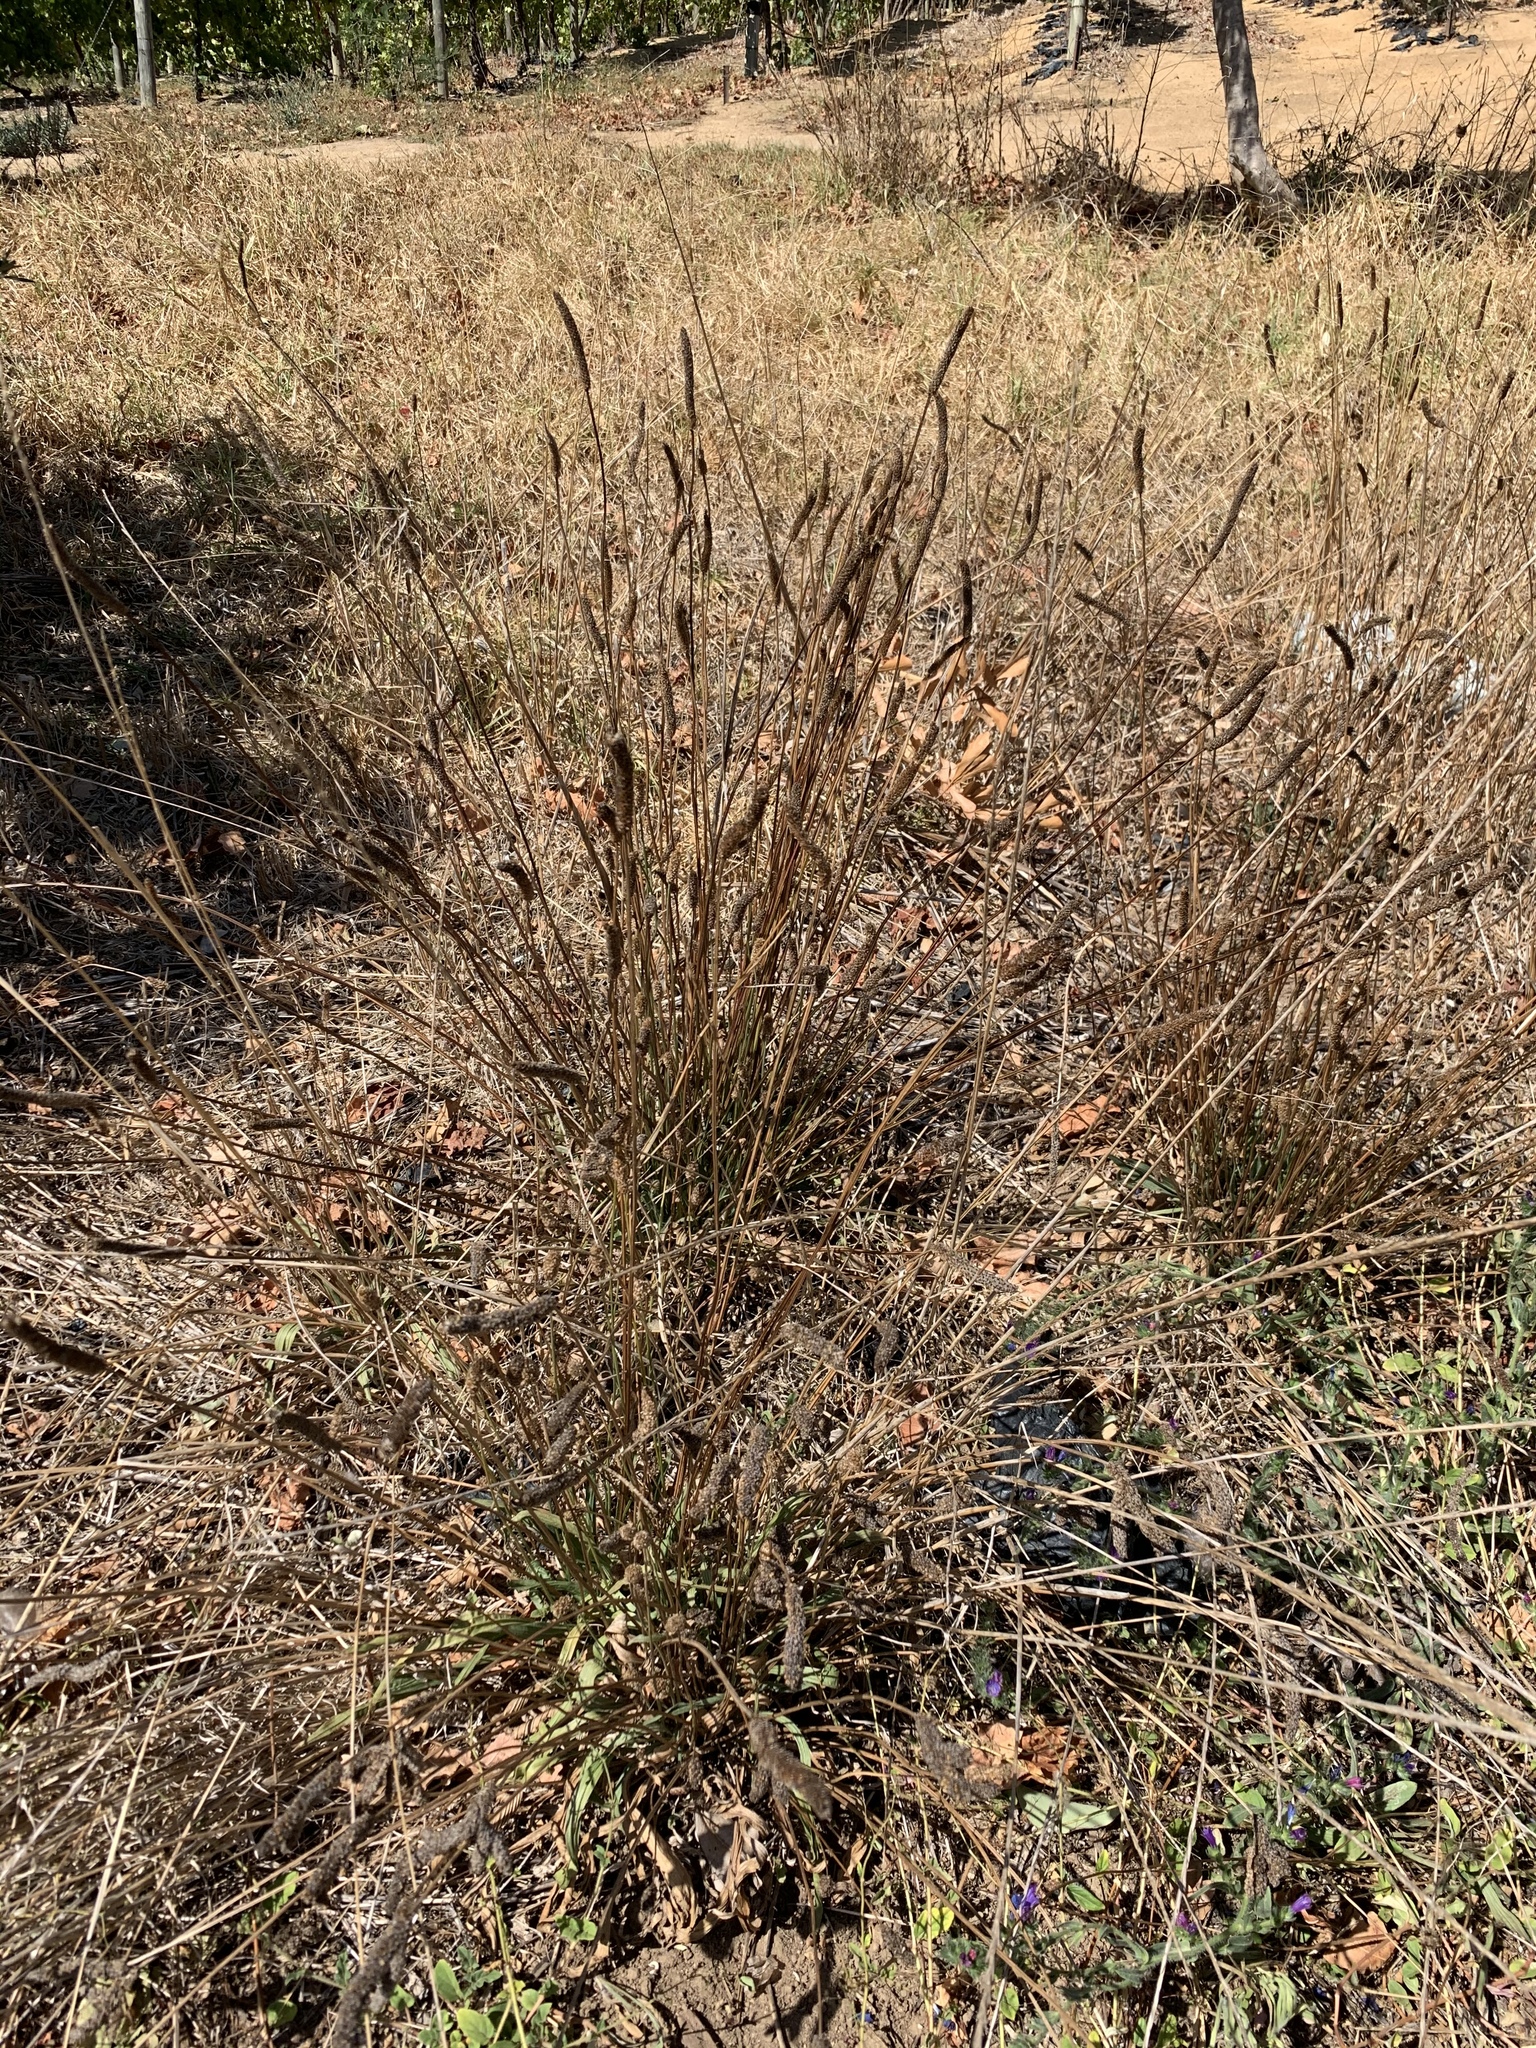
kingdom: Plantae
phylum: Tracheophyta
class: Magnoliopsida
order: Lamiales
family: Plantaginaceae
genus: Plantago
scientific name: Plantago lanceolata
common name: Ribwort plantain
